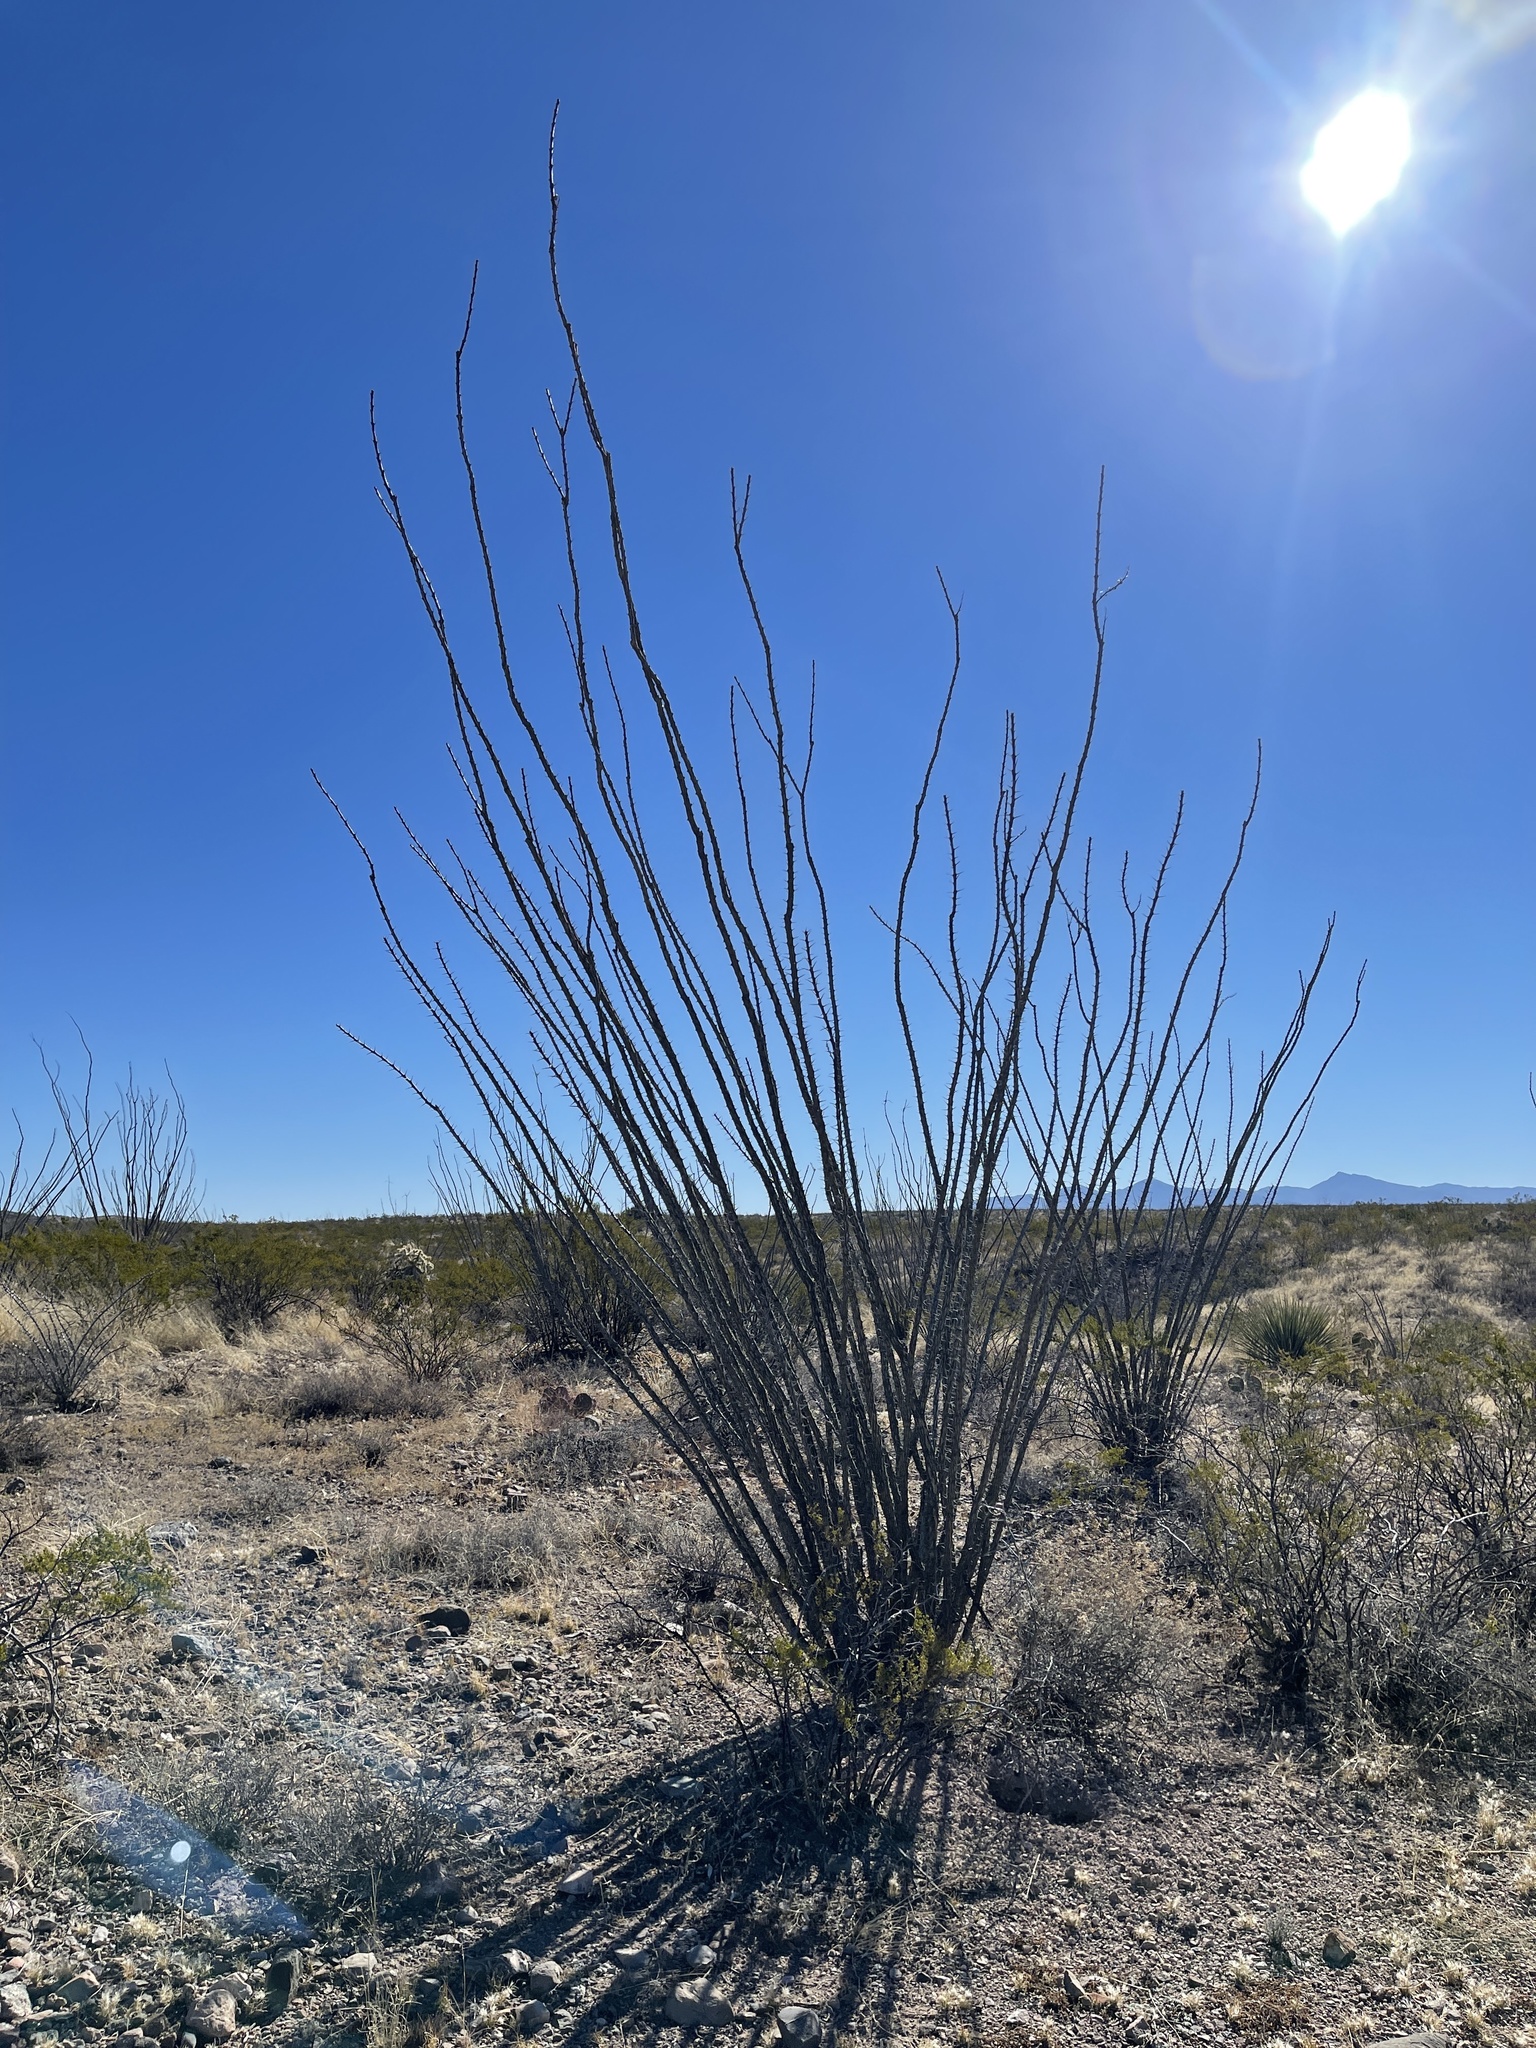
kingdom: Plantae
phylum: Tracheophyta
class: Magnoliopsida
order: Ericales
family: Fouquieriaceae
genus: Fouquieria
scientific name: Fouquieria splendens
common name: Vine-cactus
